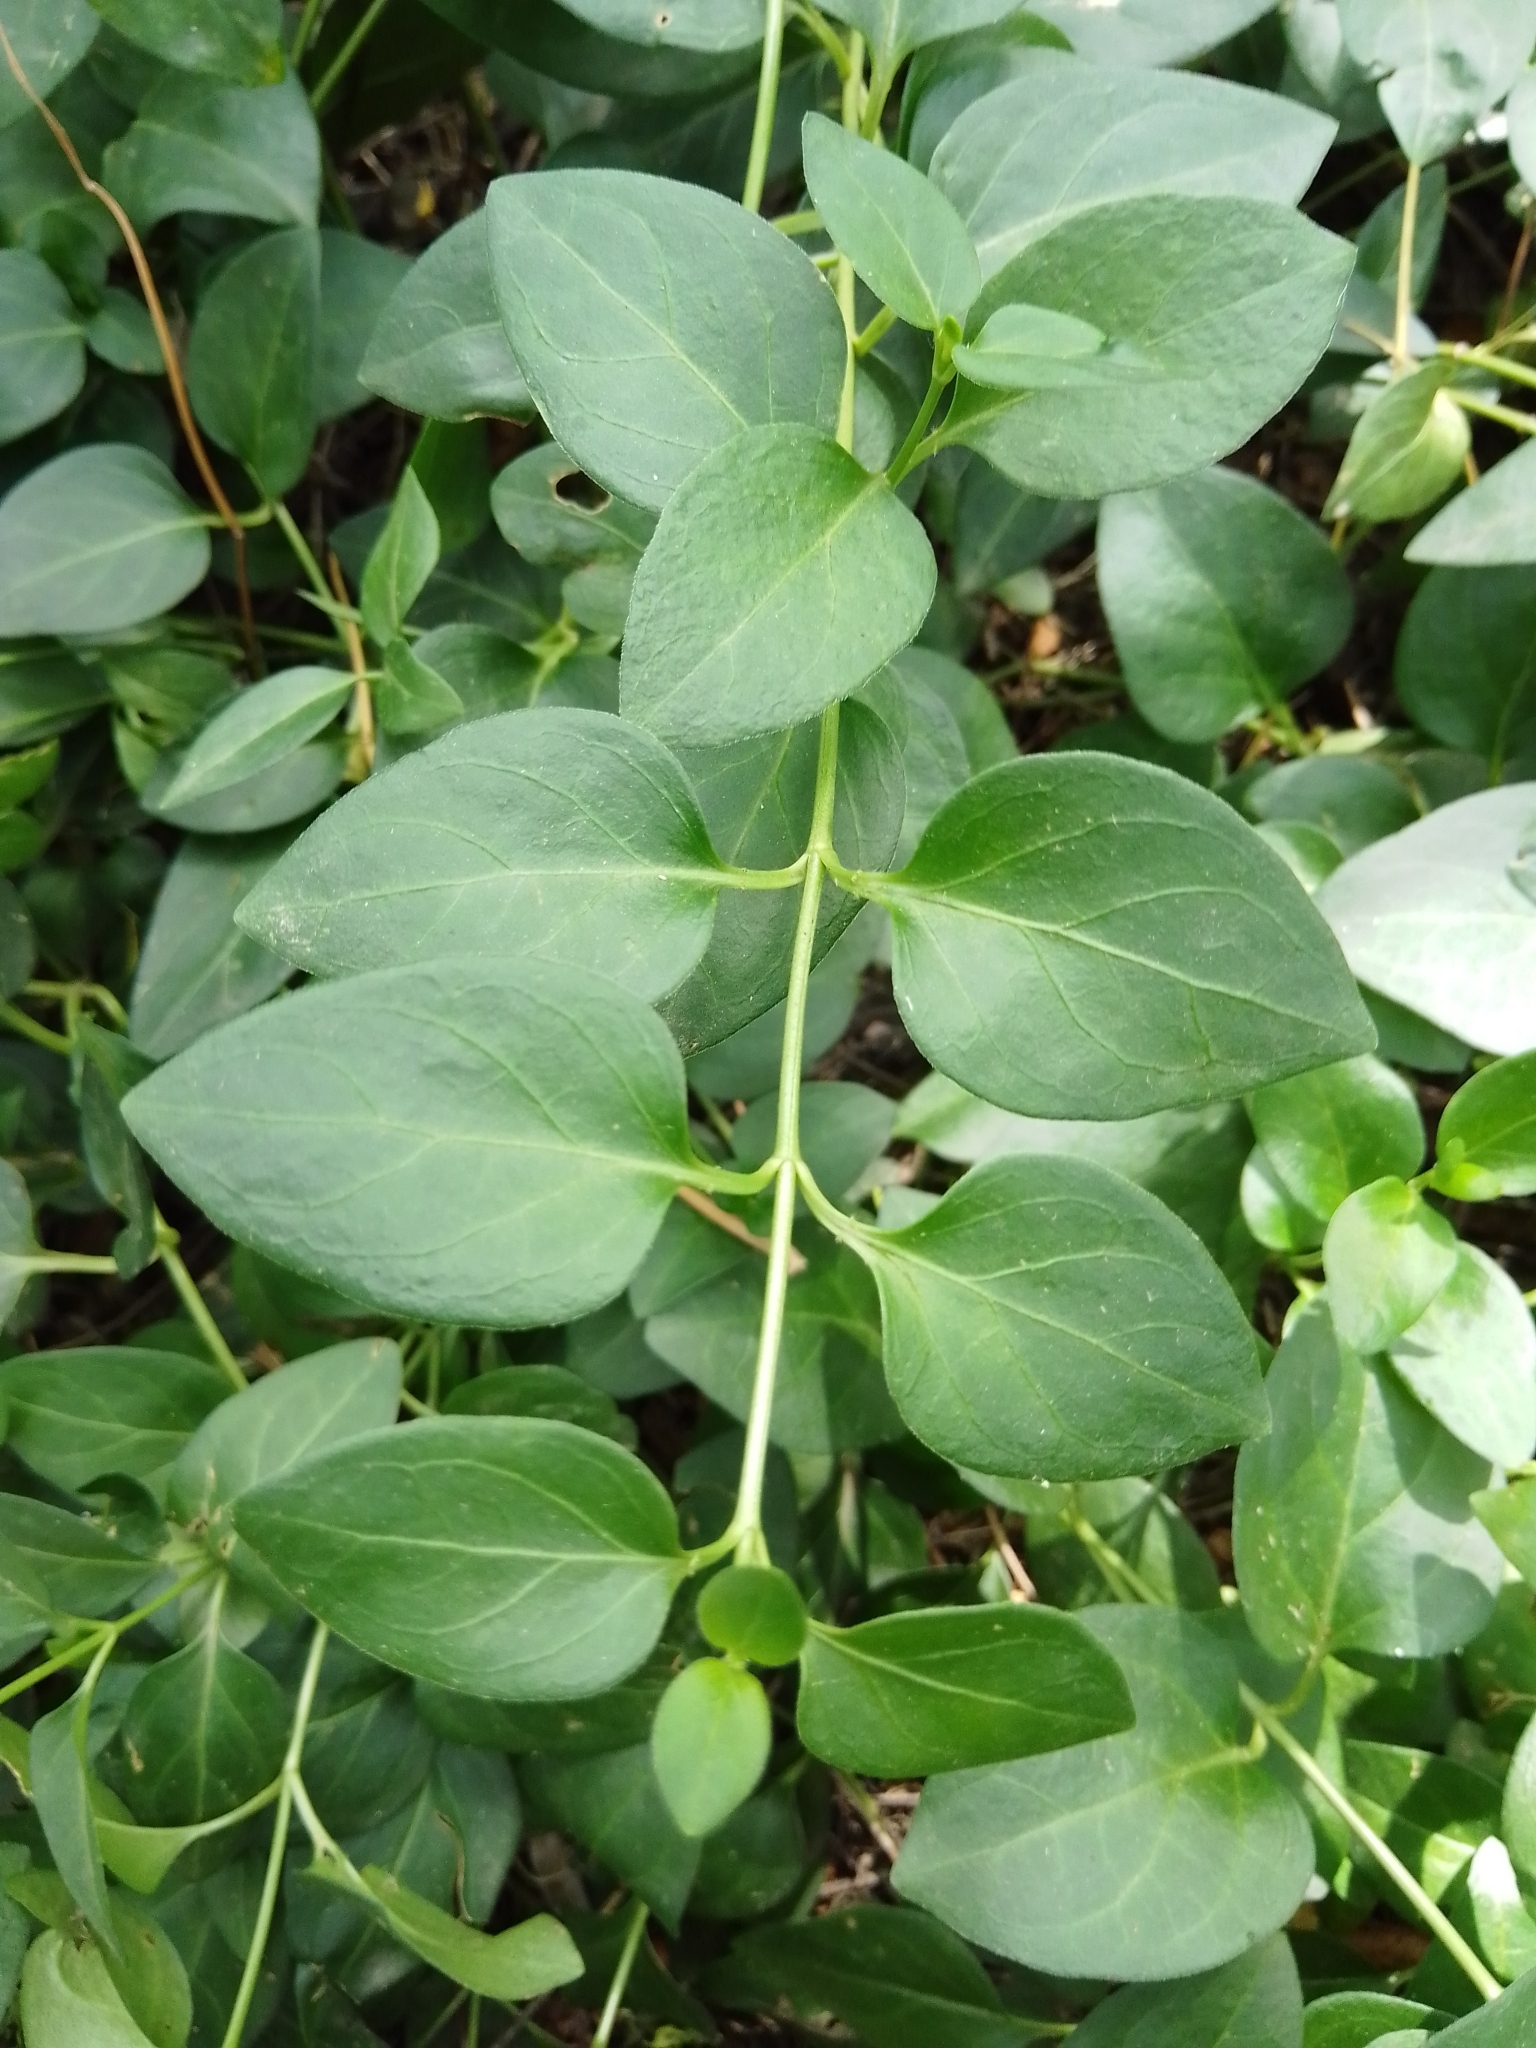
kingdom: Plantae
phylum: Tracheophyta
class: Magnoliopsida
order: Gentianales
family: Apocynaceae
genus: Vinca
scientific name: Vinca major
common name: Greater periwinkle
